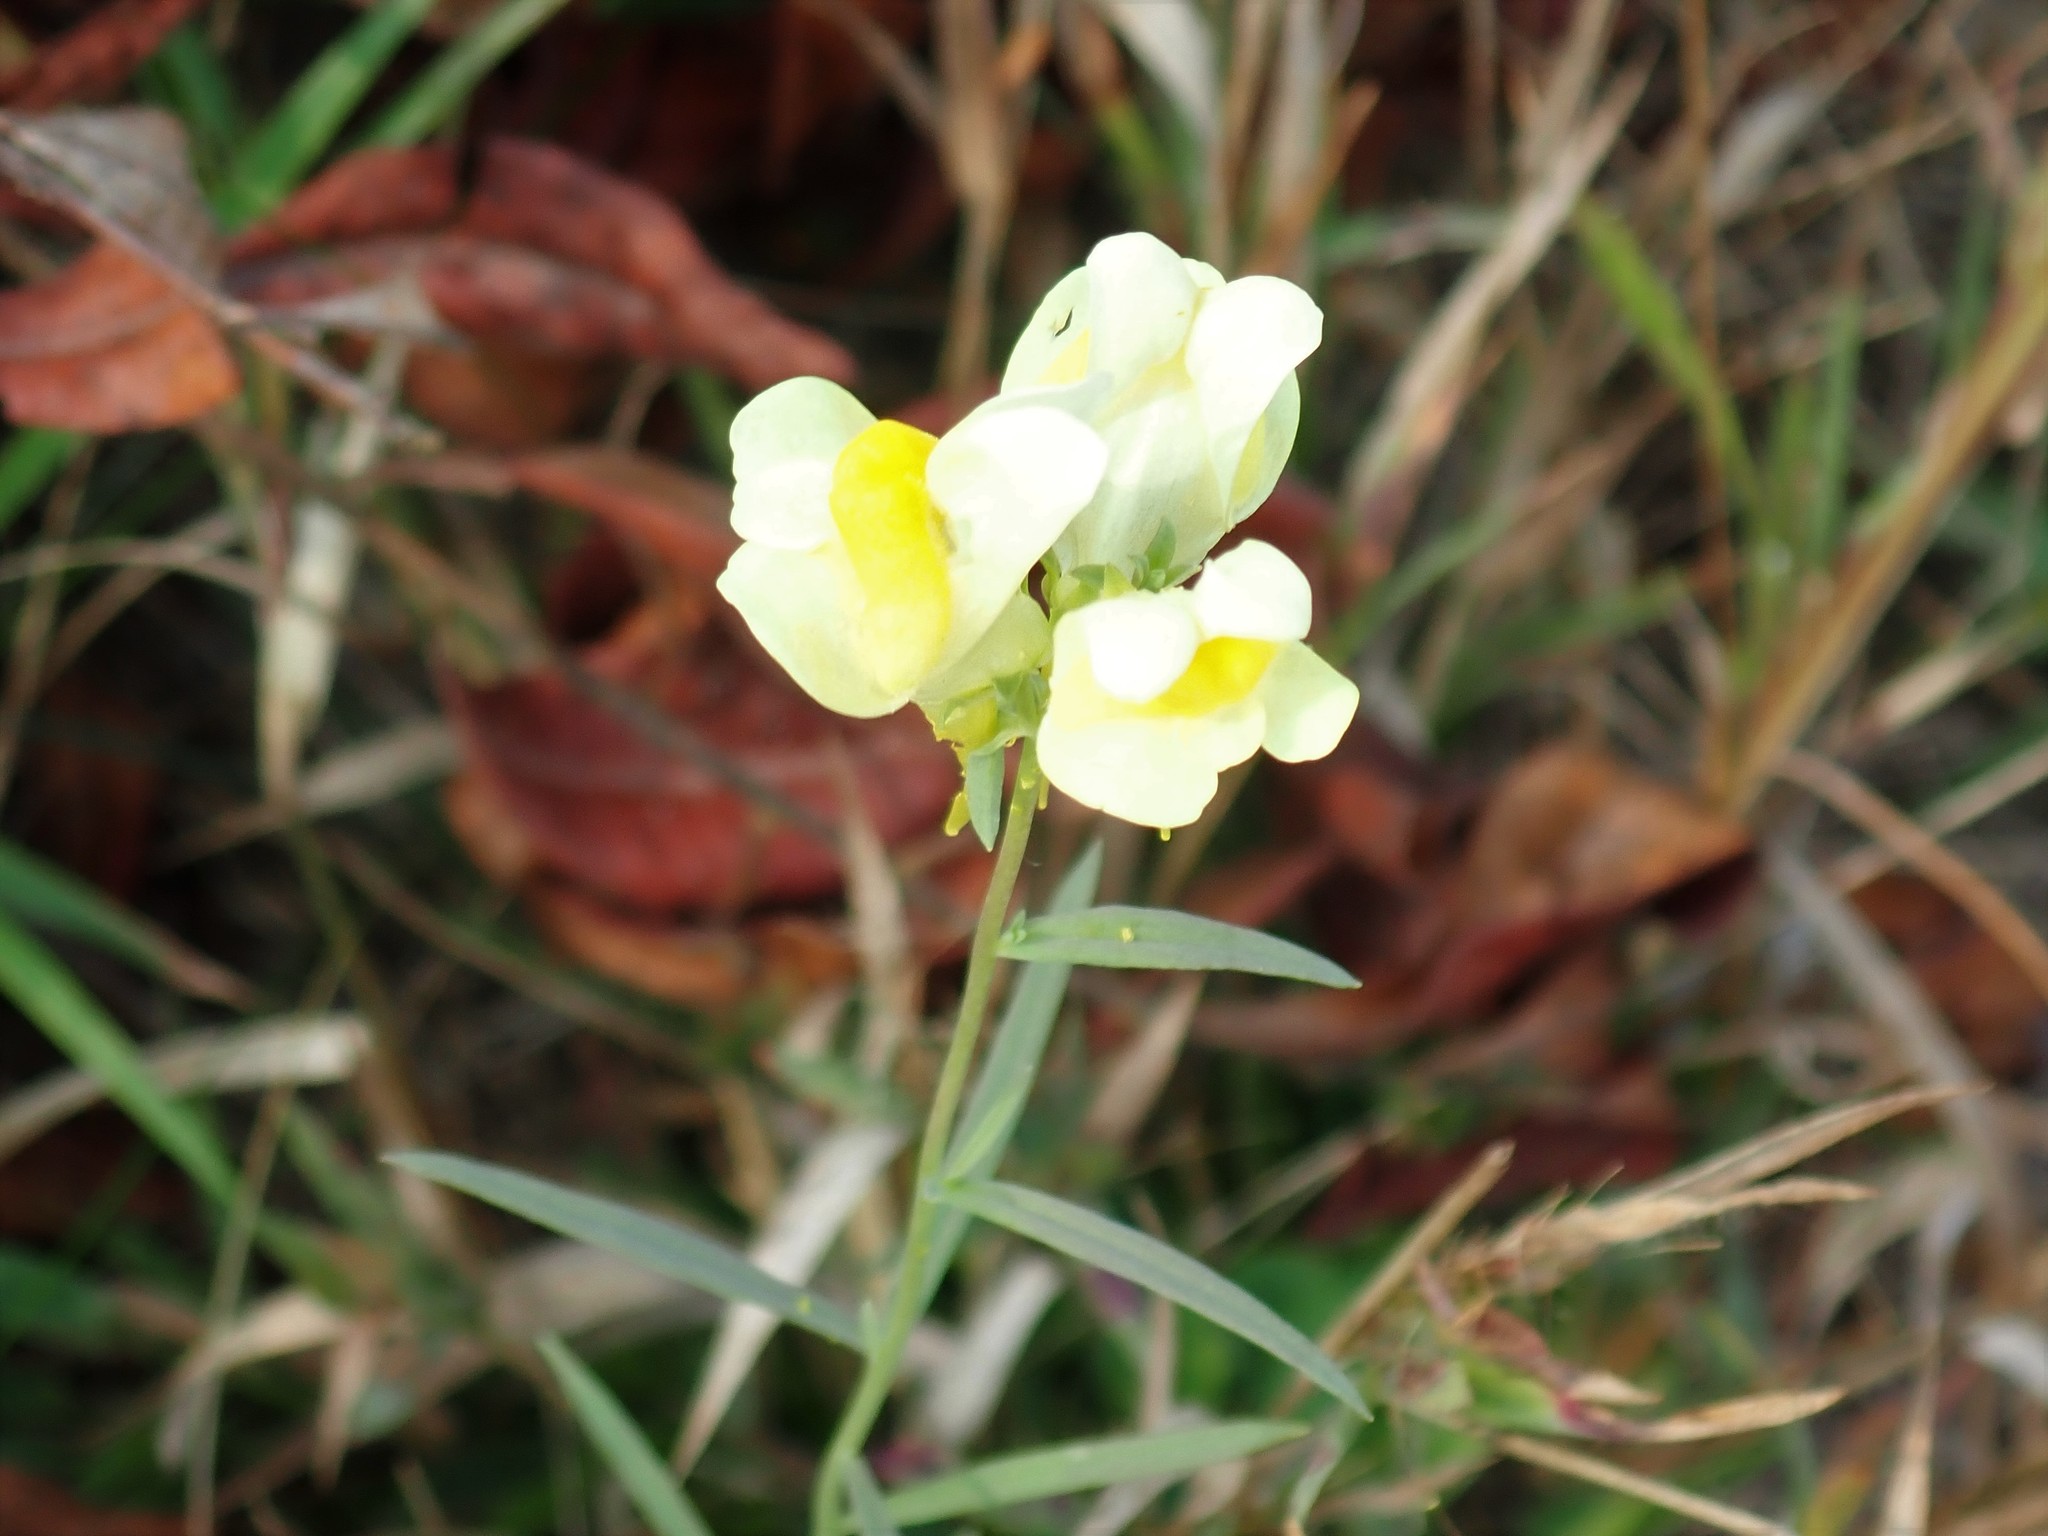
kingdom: Plantae
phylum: Tracheophyta
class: Magnoliopsida
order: Lamiales
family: Plantaginaceae
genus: Linaria
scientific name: Linaria vulgaris
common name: Butter and eggs
